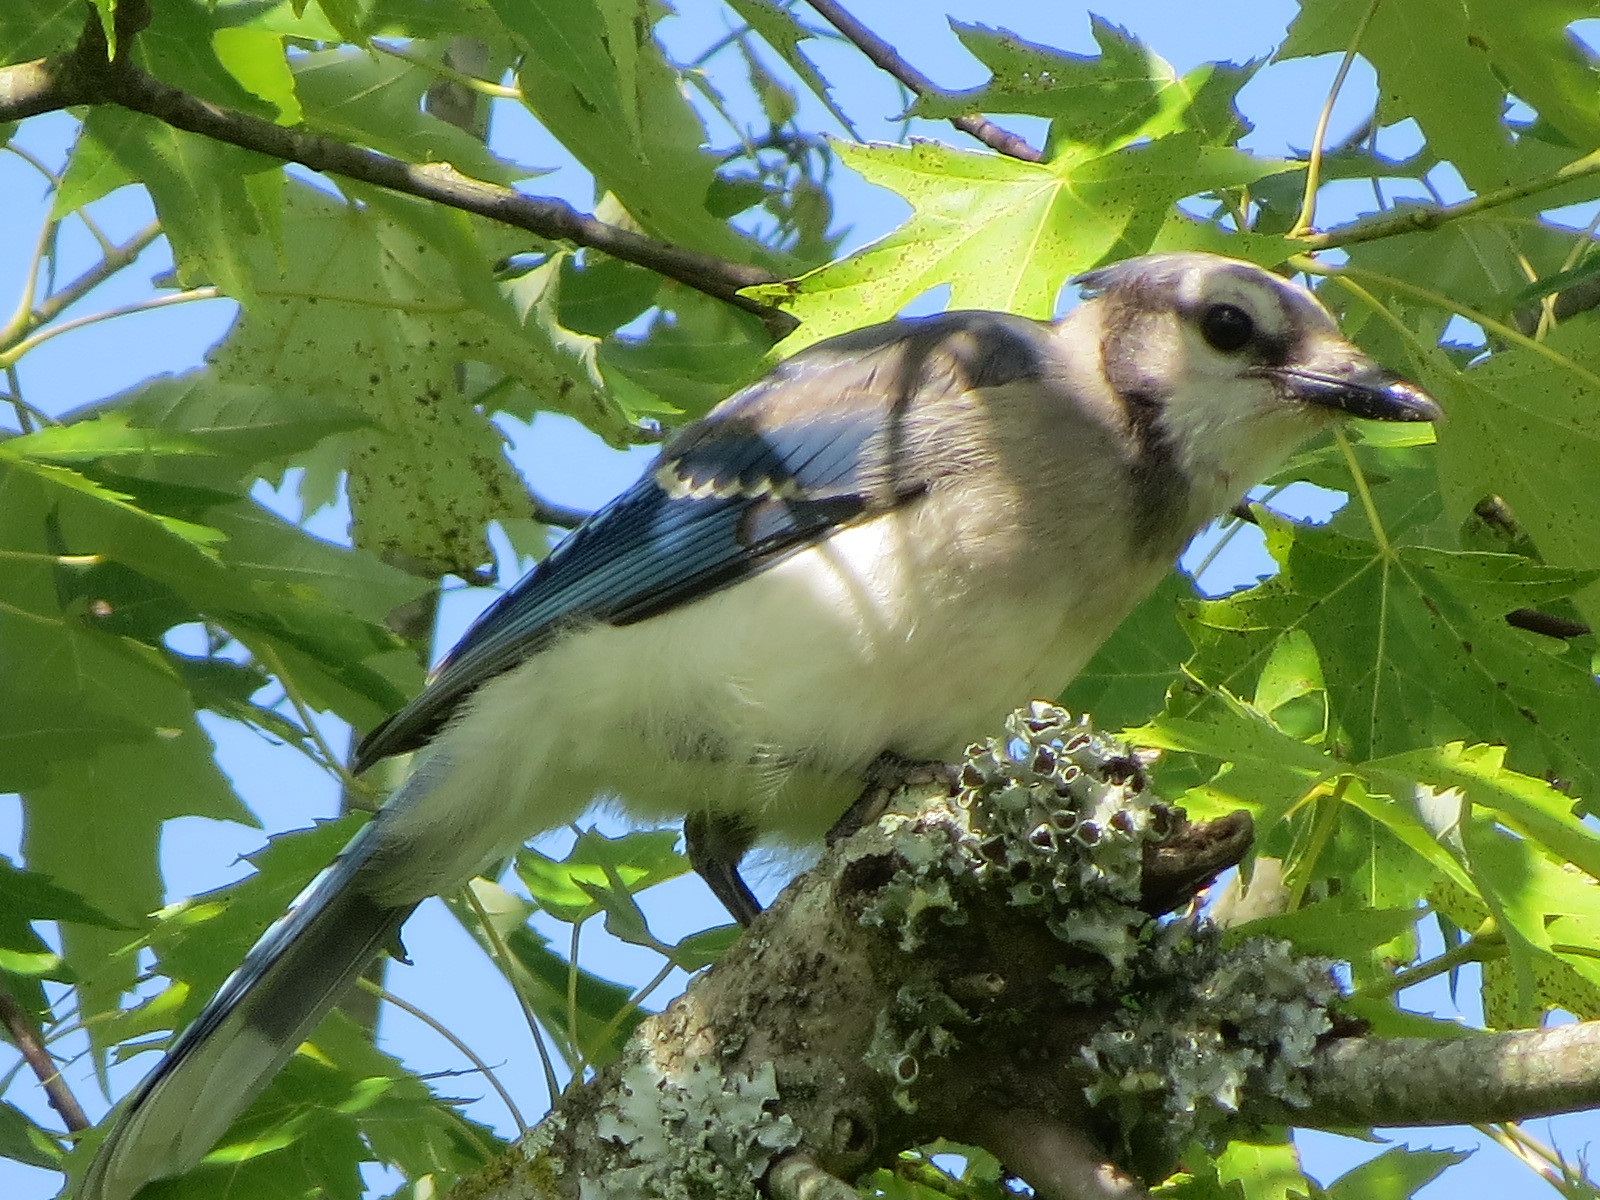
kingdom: Animalia
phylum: Chordata
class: Aves
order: Passeriformes
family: Corvidae
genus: Cyanocitta
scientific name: Cyanocitta cristata
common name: Blue jay
